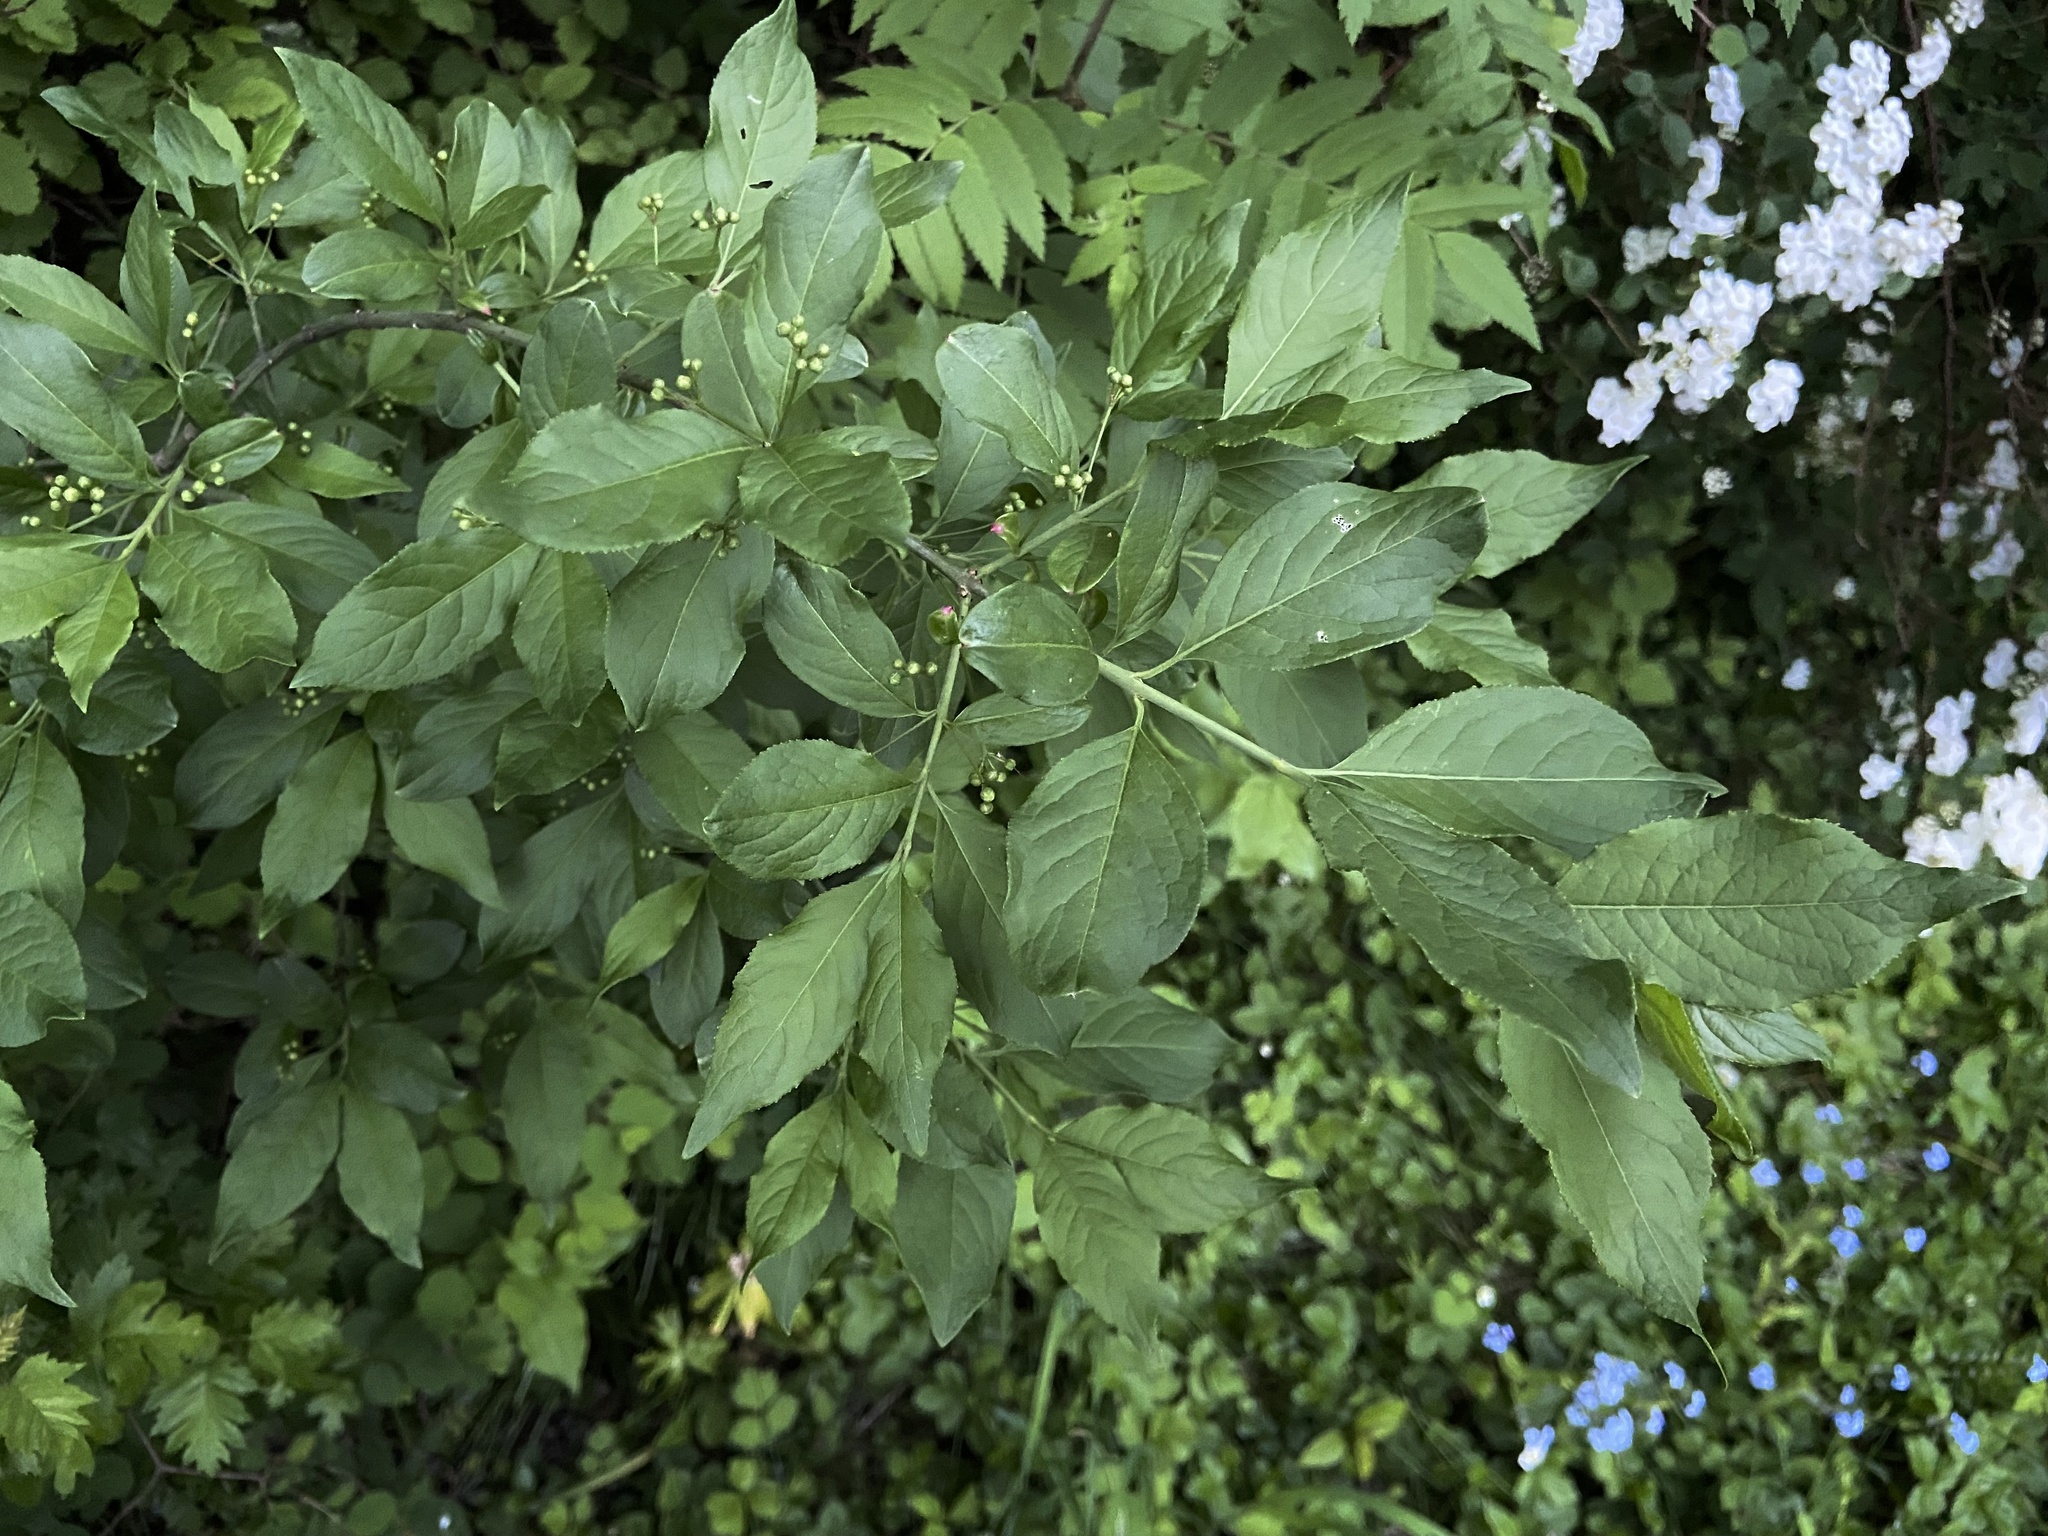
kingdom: Plantae
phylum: Tracheophyta
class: Magnoliopsida
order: Celastrales
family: Celastraceae
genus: Euonymus
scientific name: Euonymus europaeus
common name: Spindle
